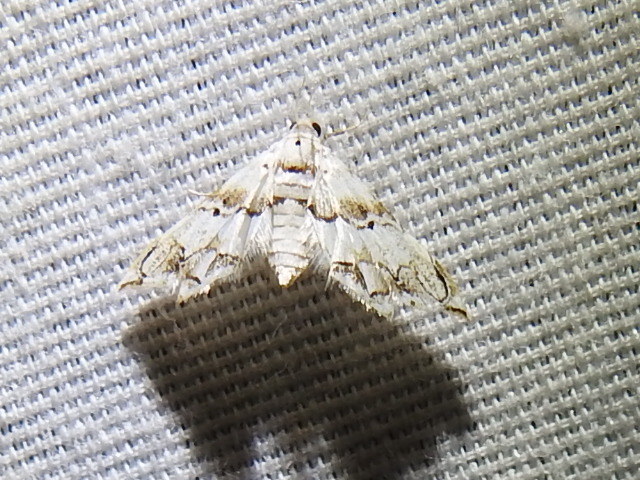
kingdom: Animalia
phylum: Arthropoda
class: Insecta
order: Lepidoptera
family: Crambidae
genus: Oxyelophila
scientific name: Oxyelophila callista
